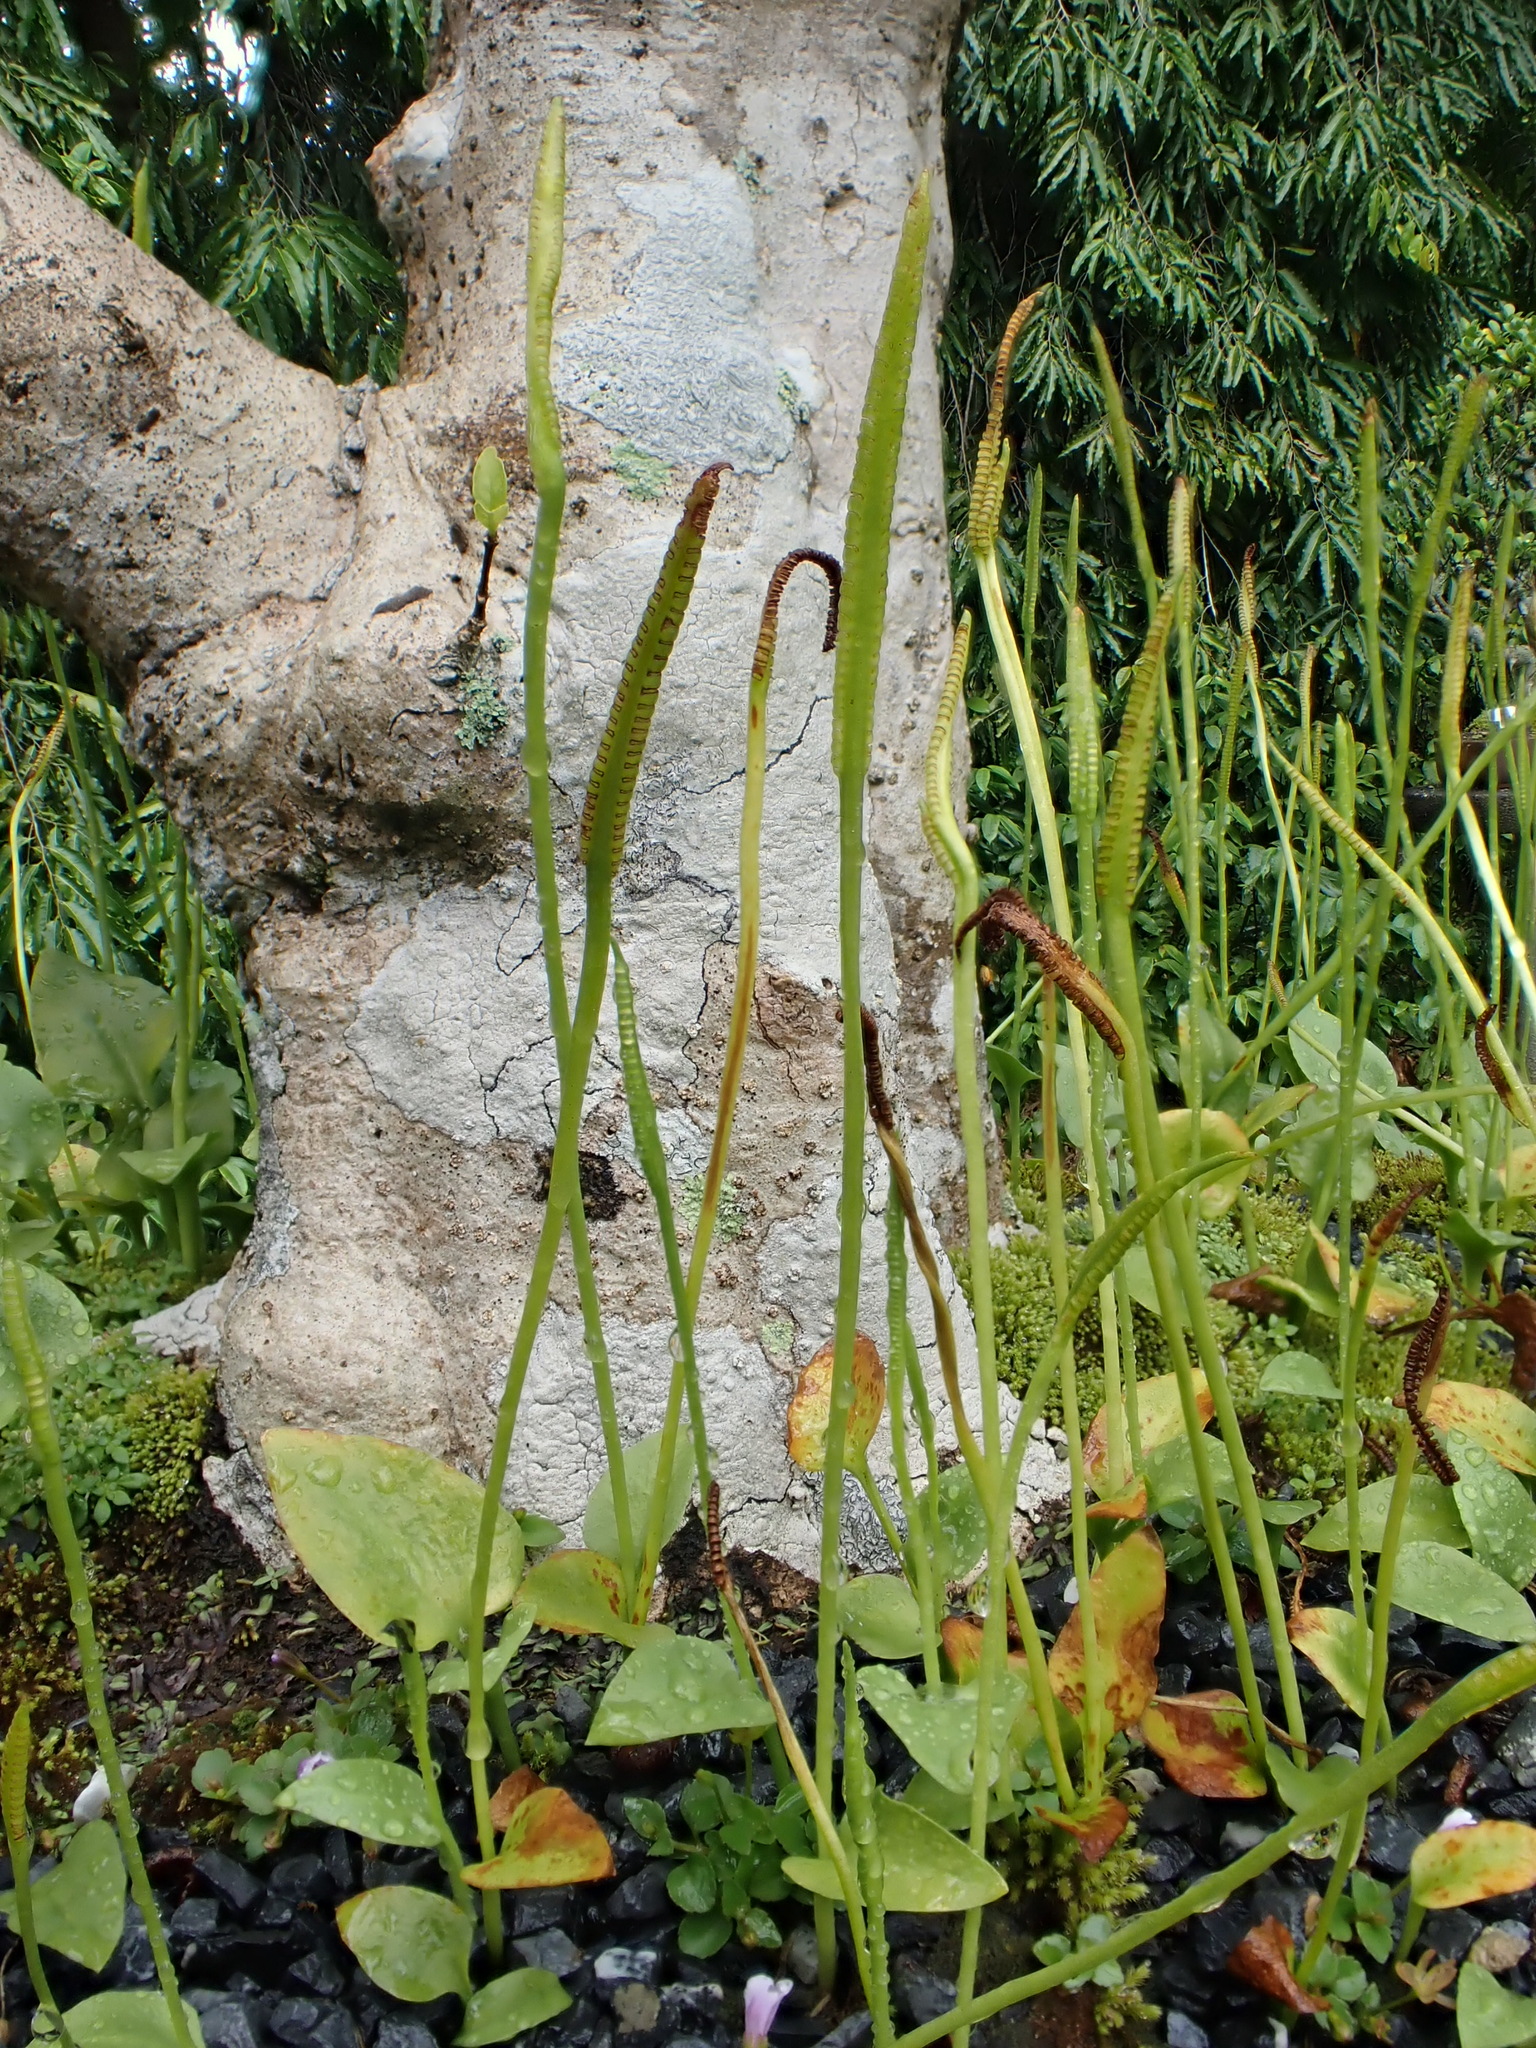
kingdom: Plantae
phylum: Tracheophyta
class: Polypodiopsida
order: Ophioglossales
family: Ophioglossaceae
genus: Ophioglossum
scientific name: Ophioglossum reticulatum
